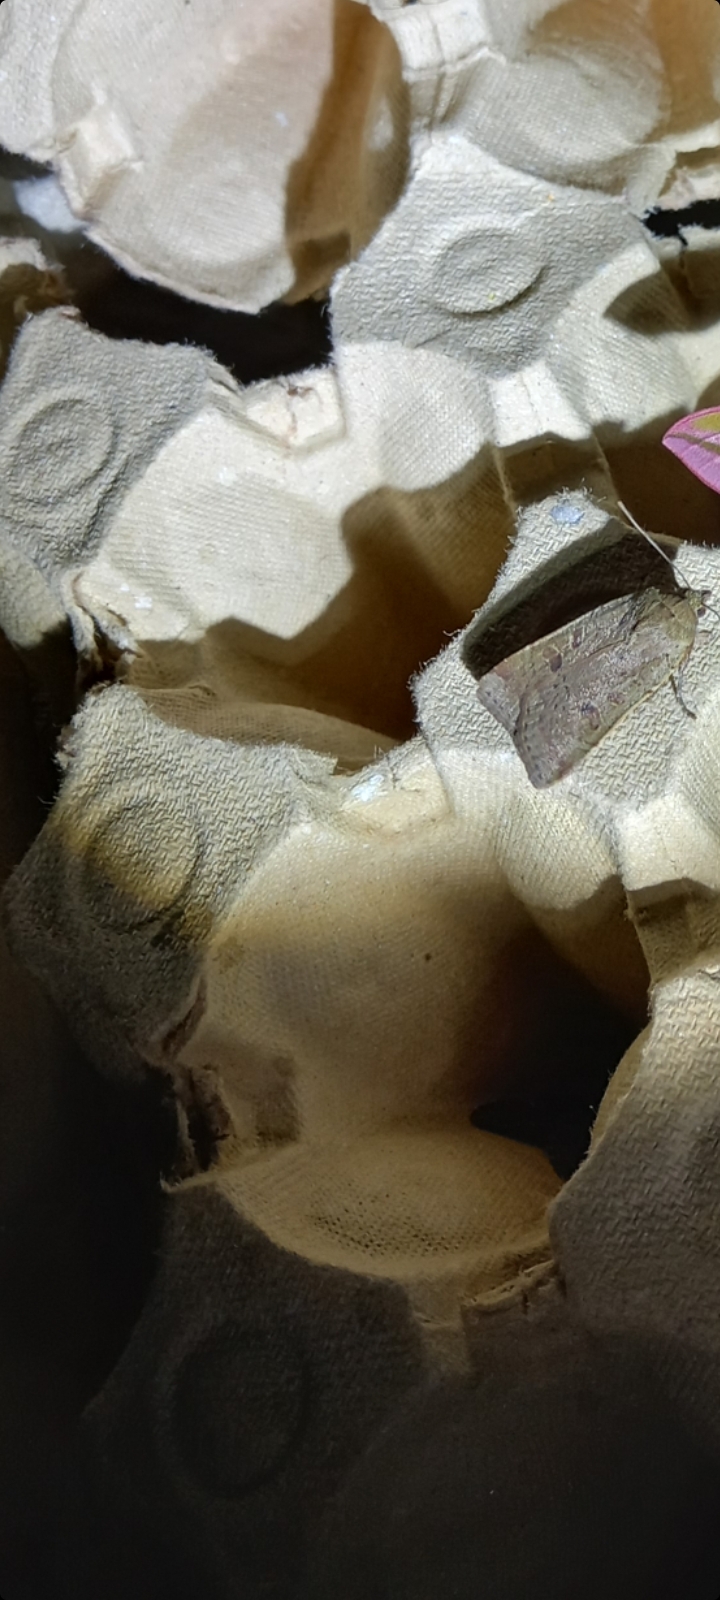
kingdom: Animalia
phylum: Arthropoda
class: Insecta
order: Lepidoptera
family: Noctuidae
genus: Noctua
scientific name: Noctua comes
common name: Lesser yellow underwing
